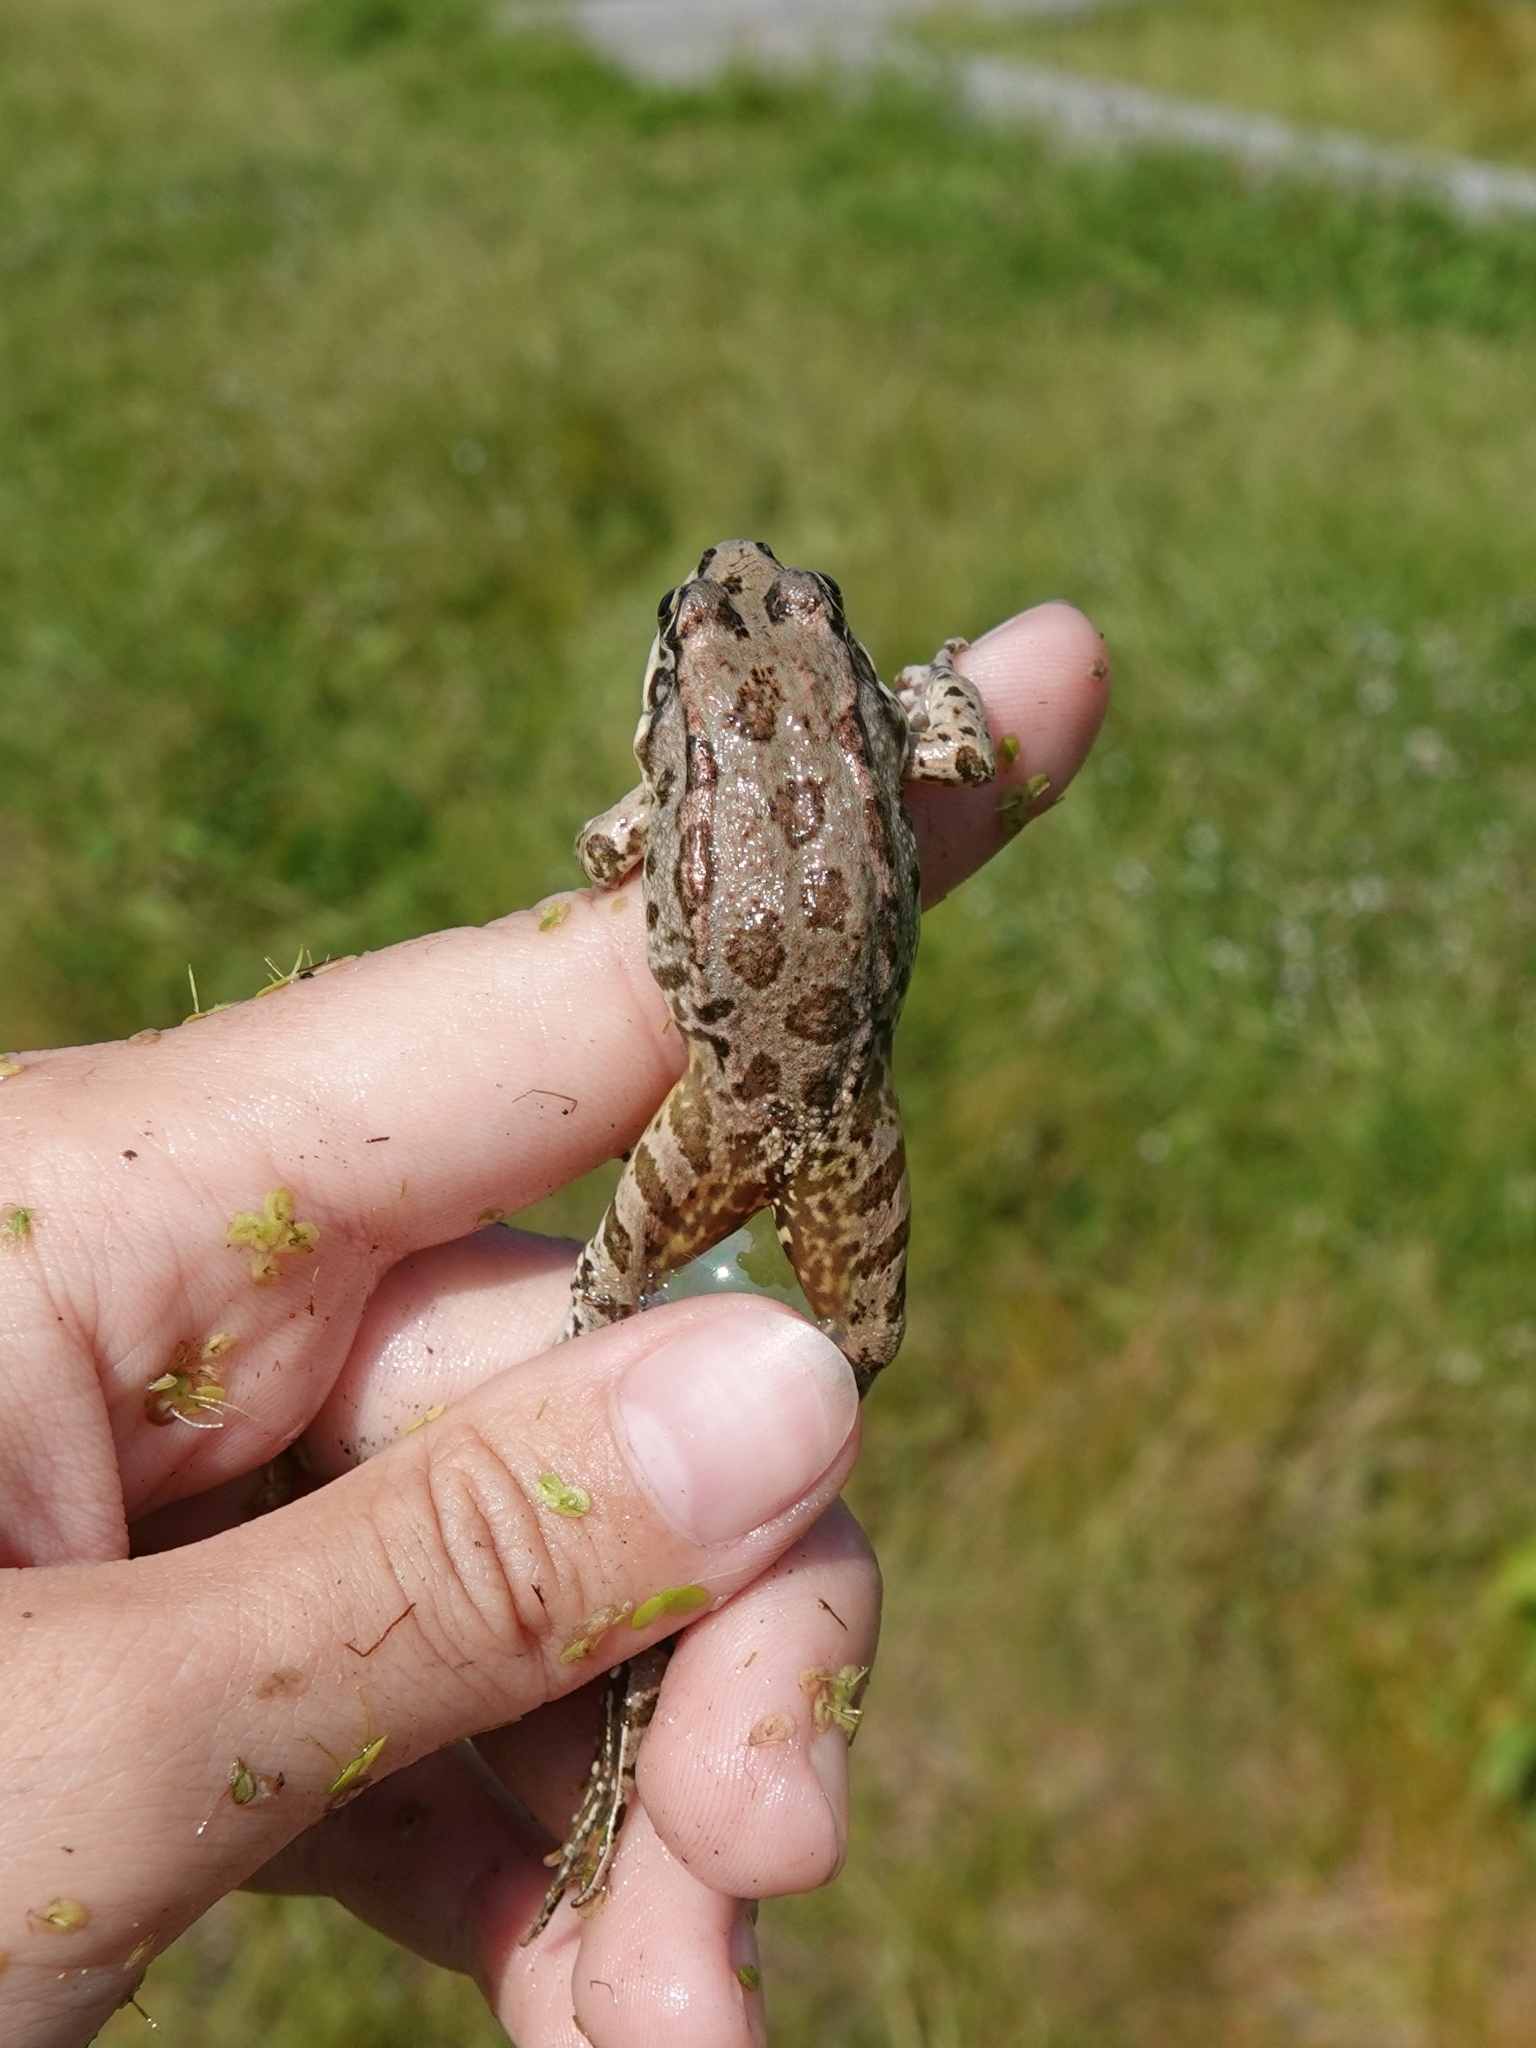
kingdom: Animalia
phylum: Chordata
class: Amphibia
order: Anura
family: Ranidae
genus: Pelophylax
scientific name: Pelophylax ridibundus
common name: Marsh frog
